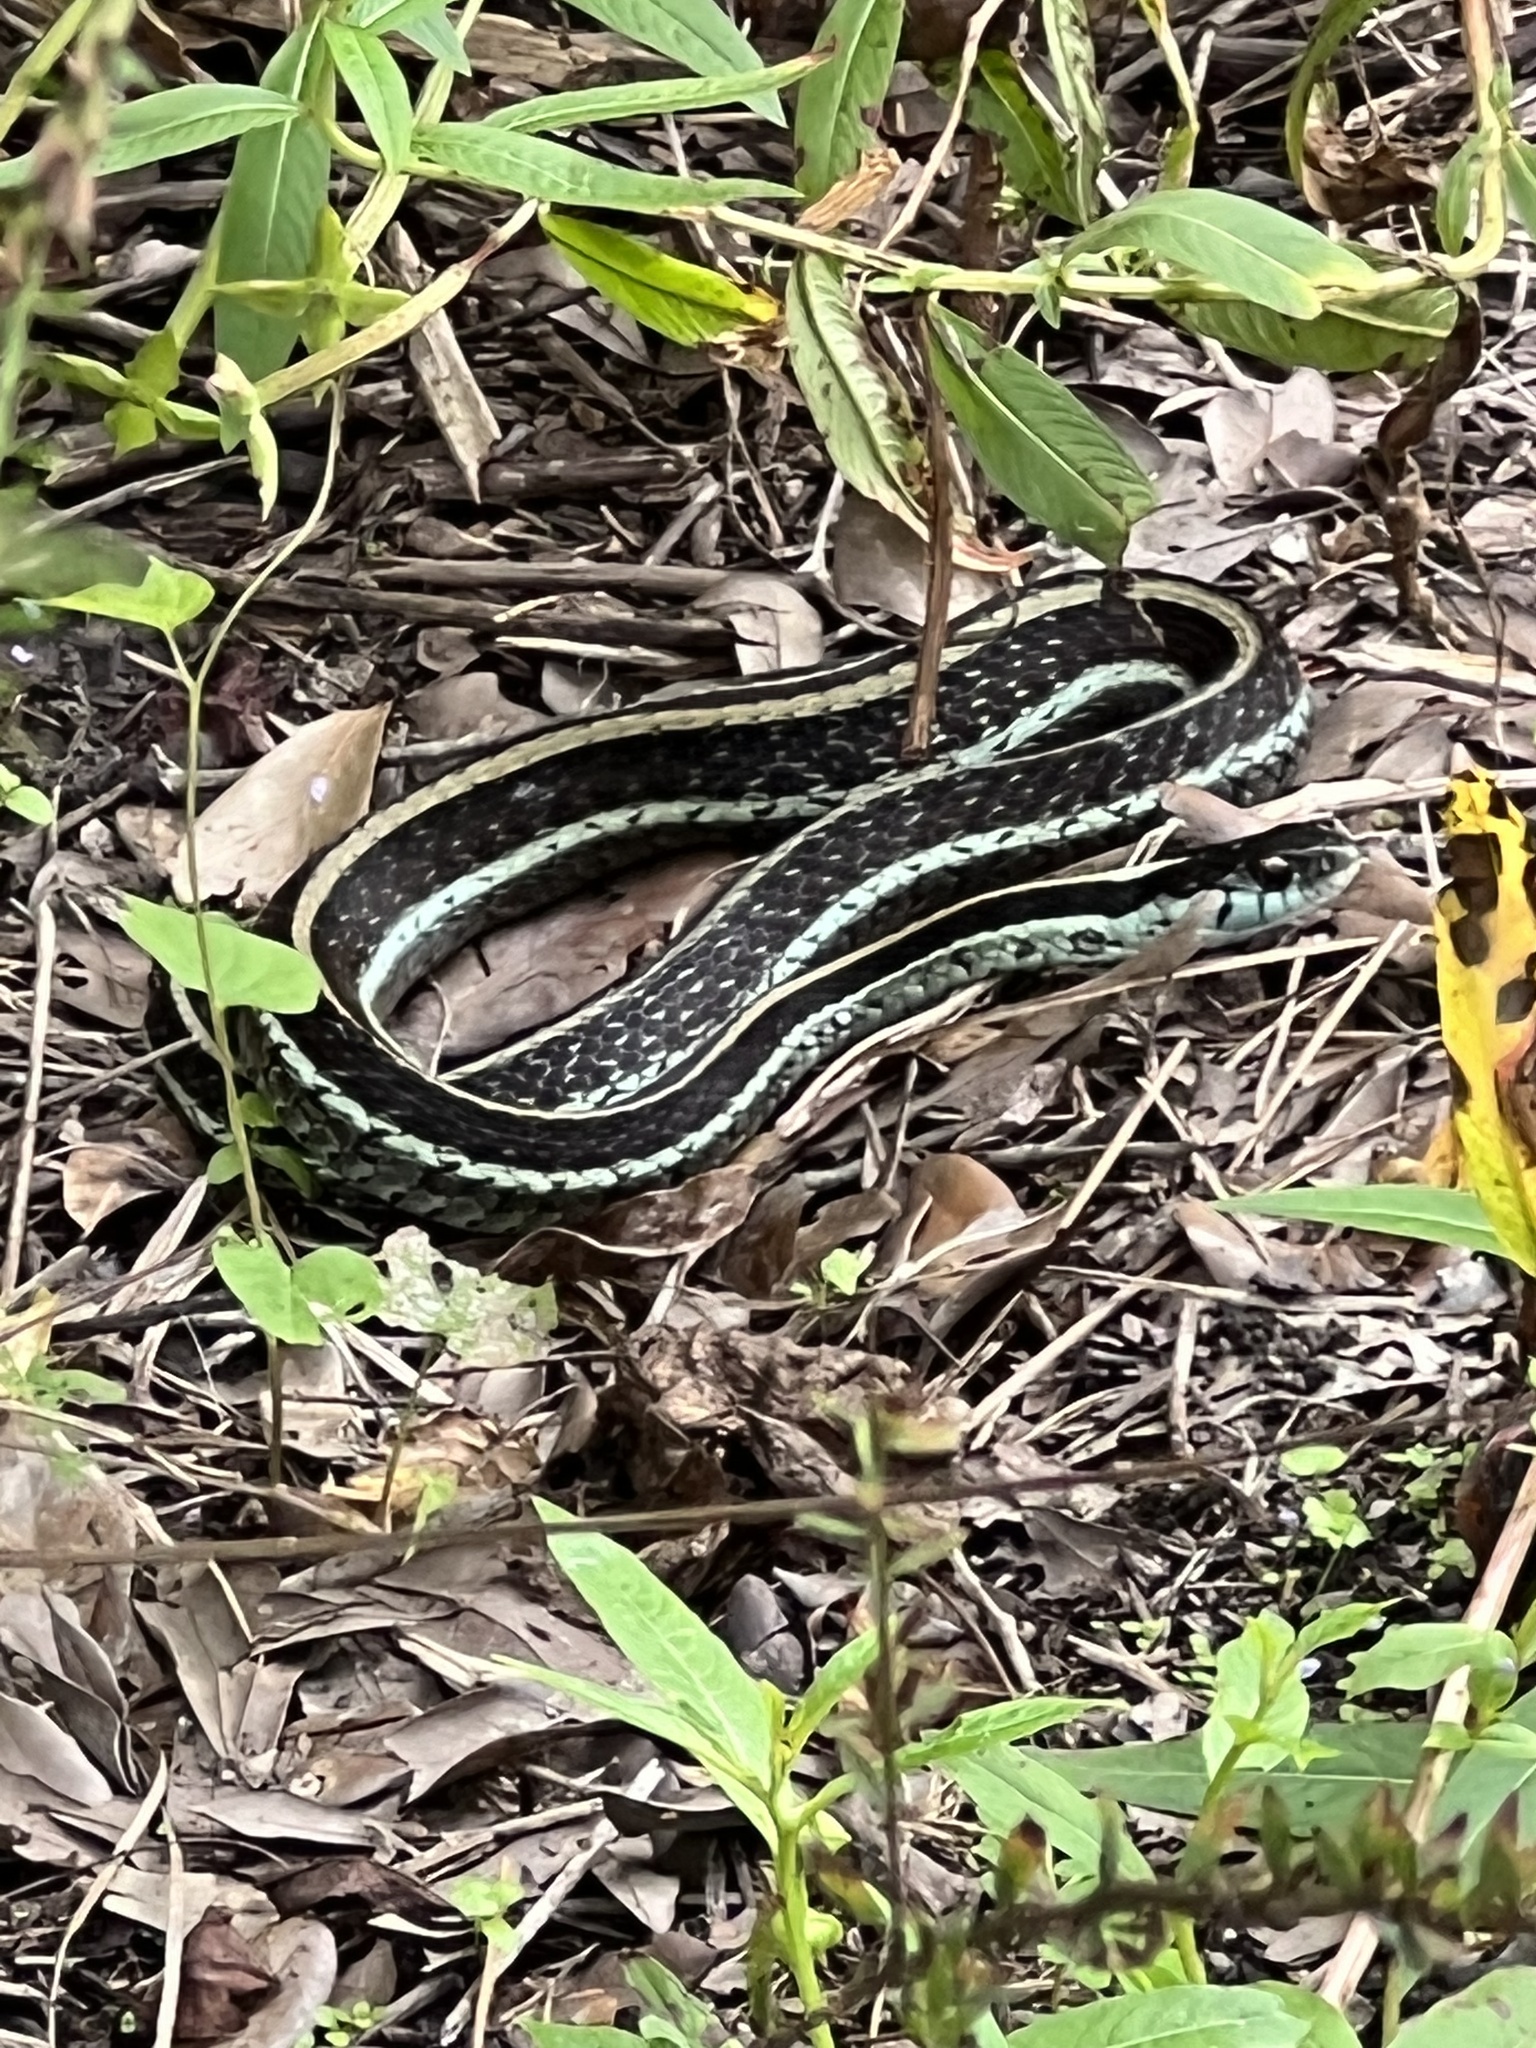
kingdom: Animalia
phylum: Chordata
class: Squamata
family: Colubridae
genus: Thamnophis
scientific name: Thamnophis sirtalis
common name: Common garter snake
